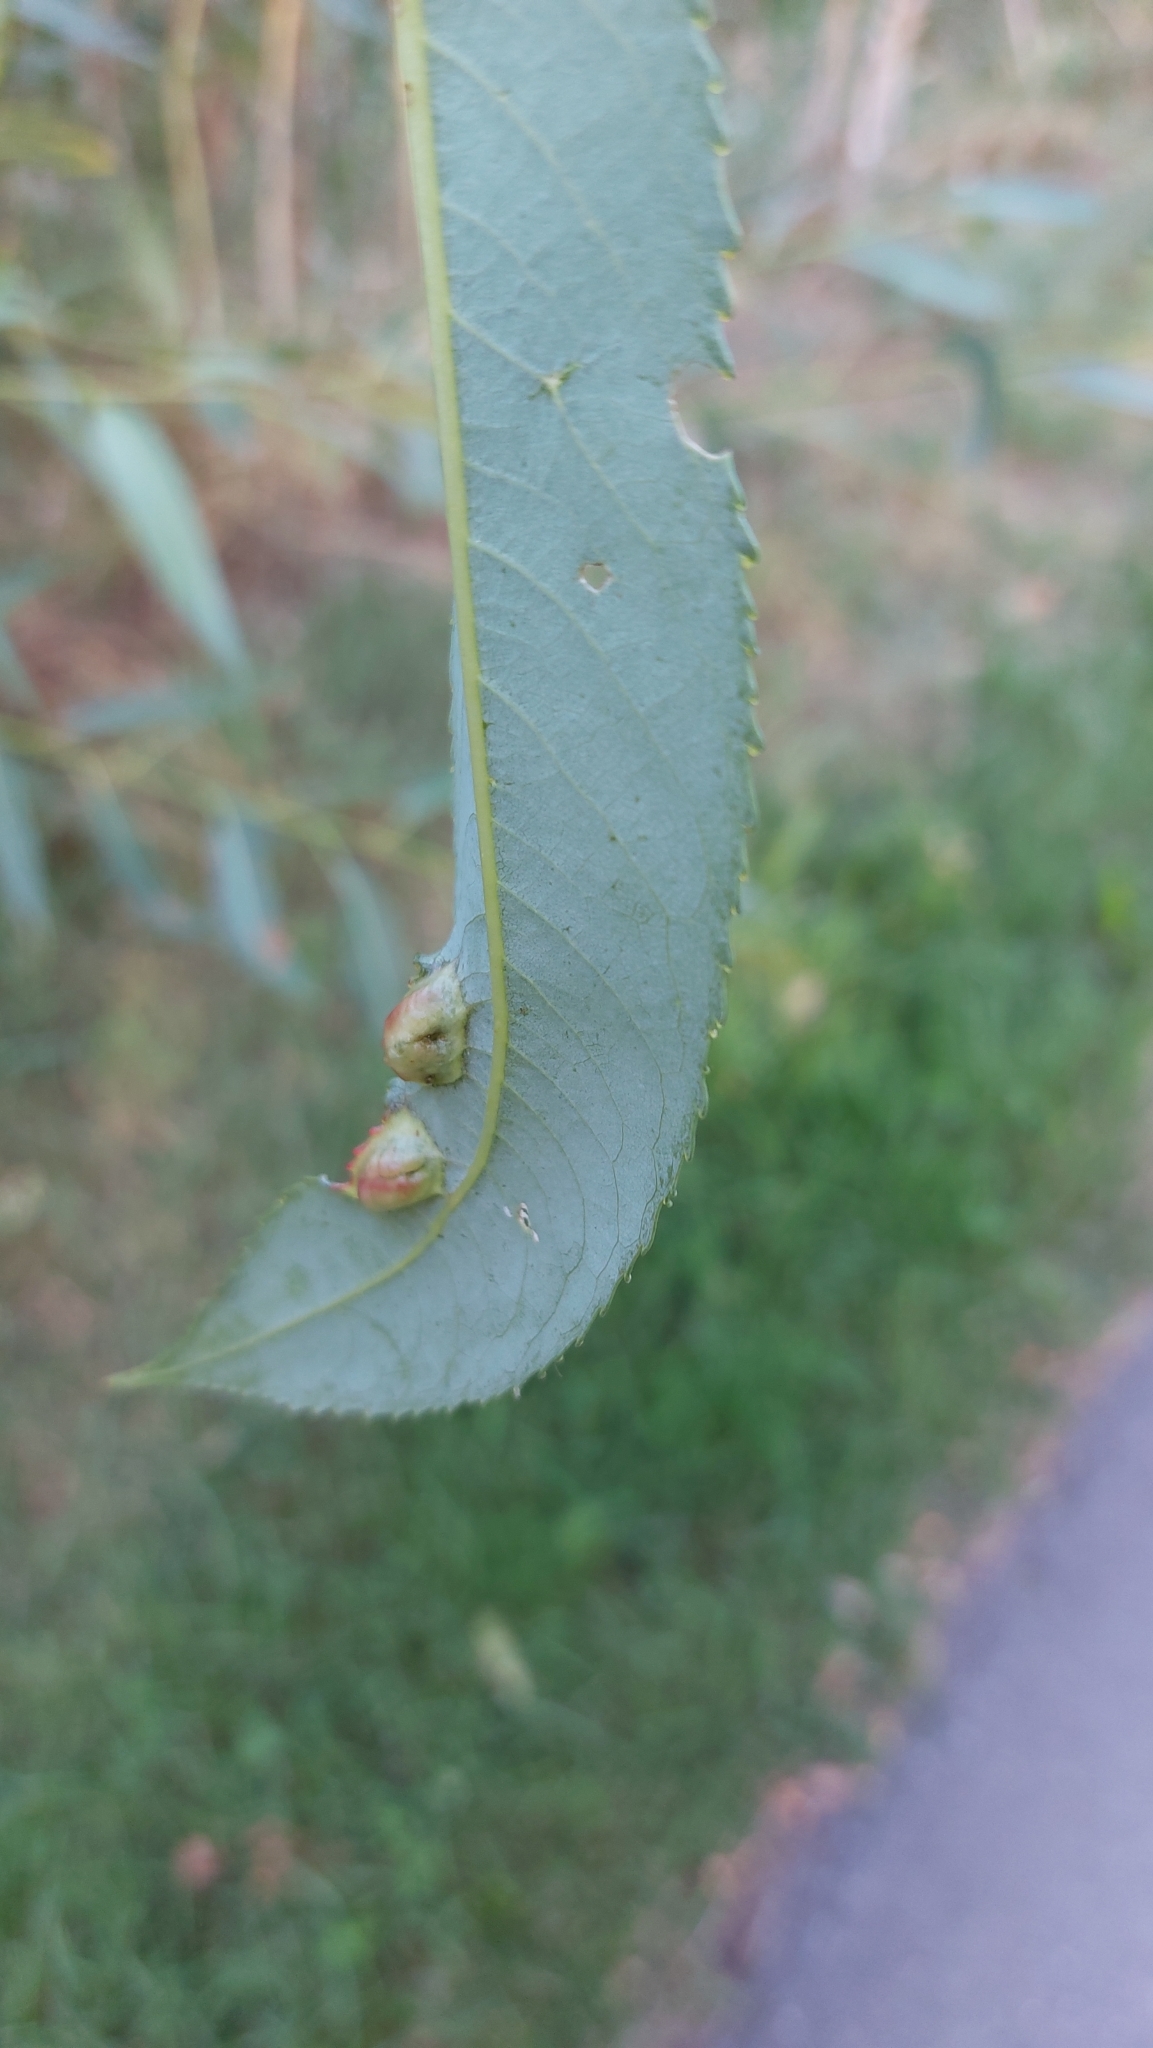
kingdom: Animalia
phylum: Arthropoda
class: Insecta
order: Hymenoptera
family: Tenthredinidae
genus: Pontania
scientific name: Pontania proxima
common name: Common sawfly
